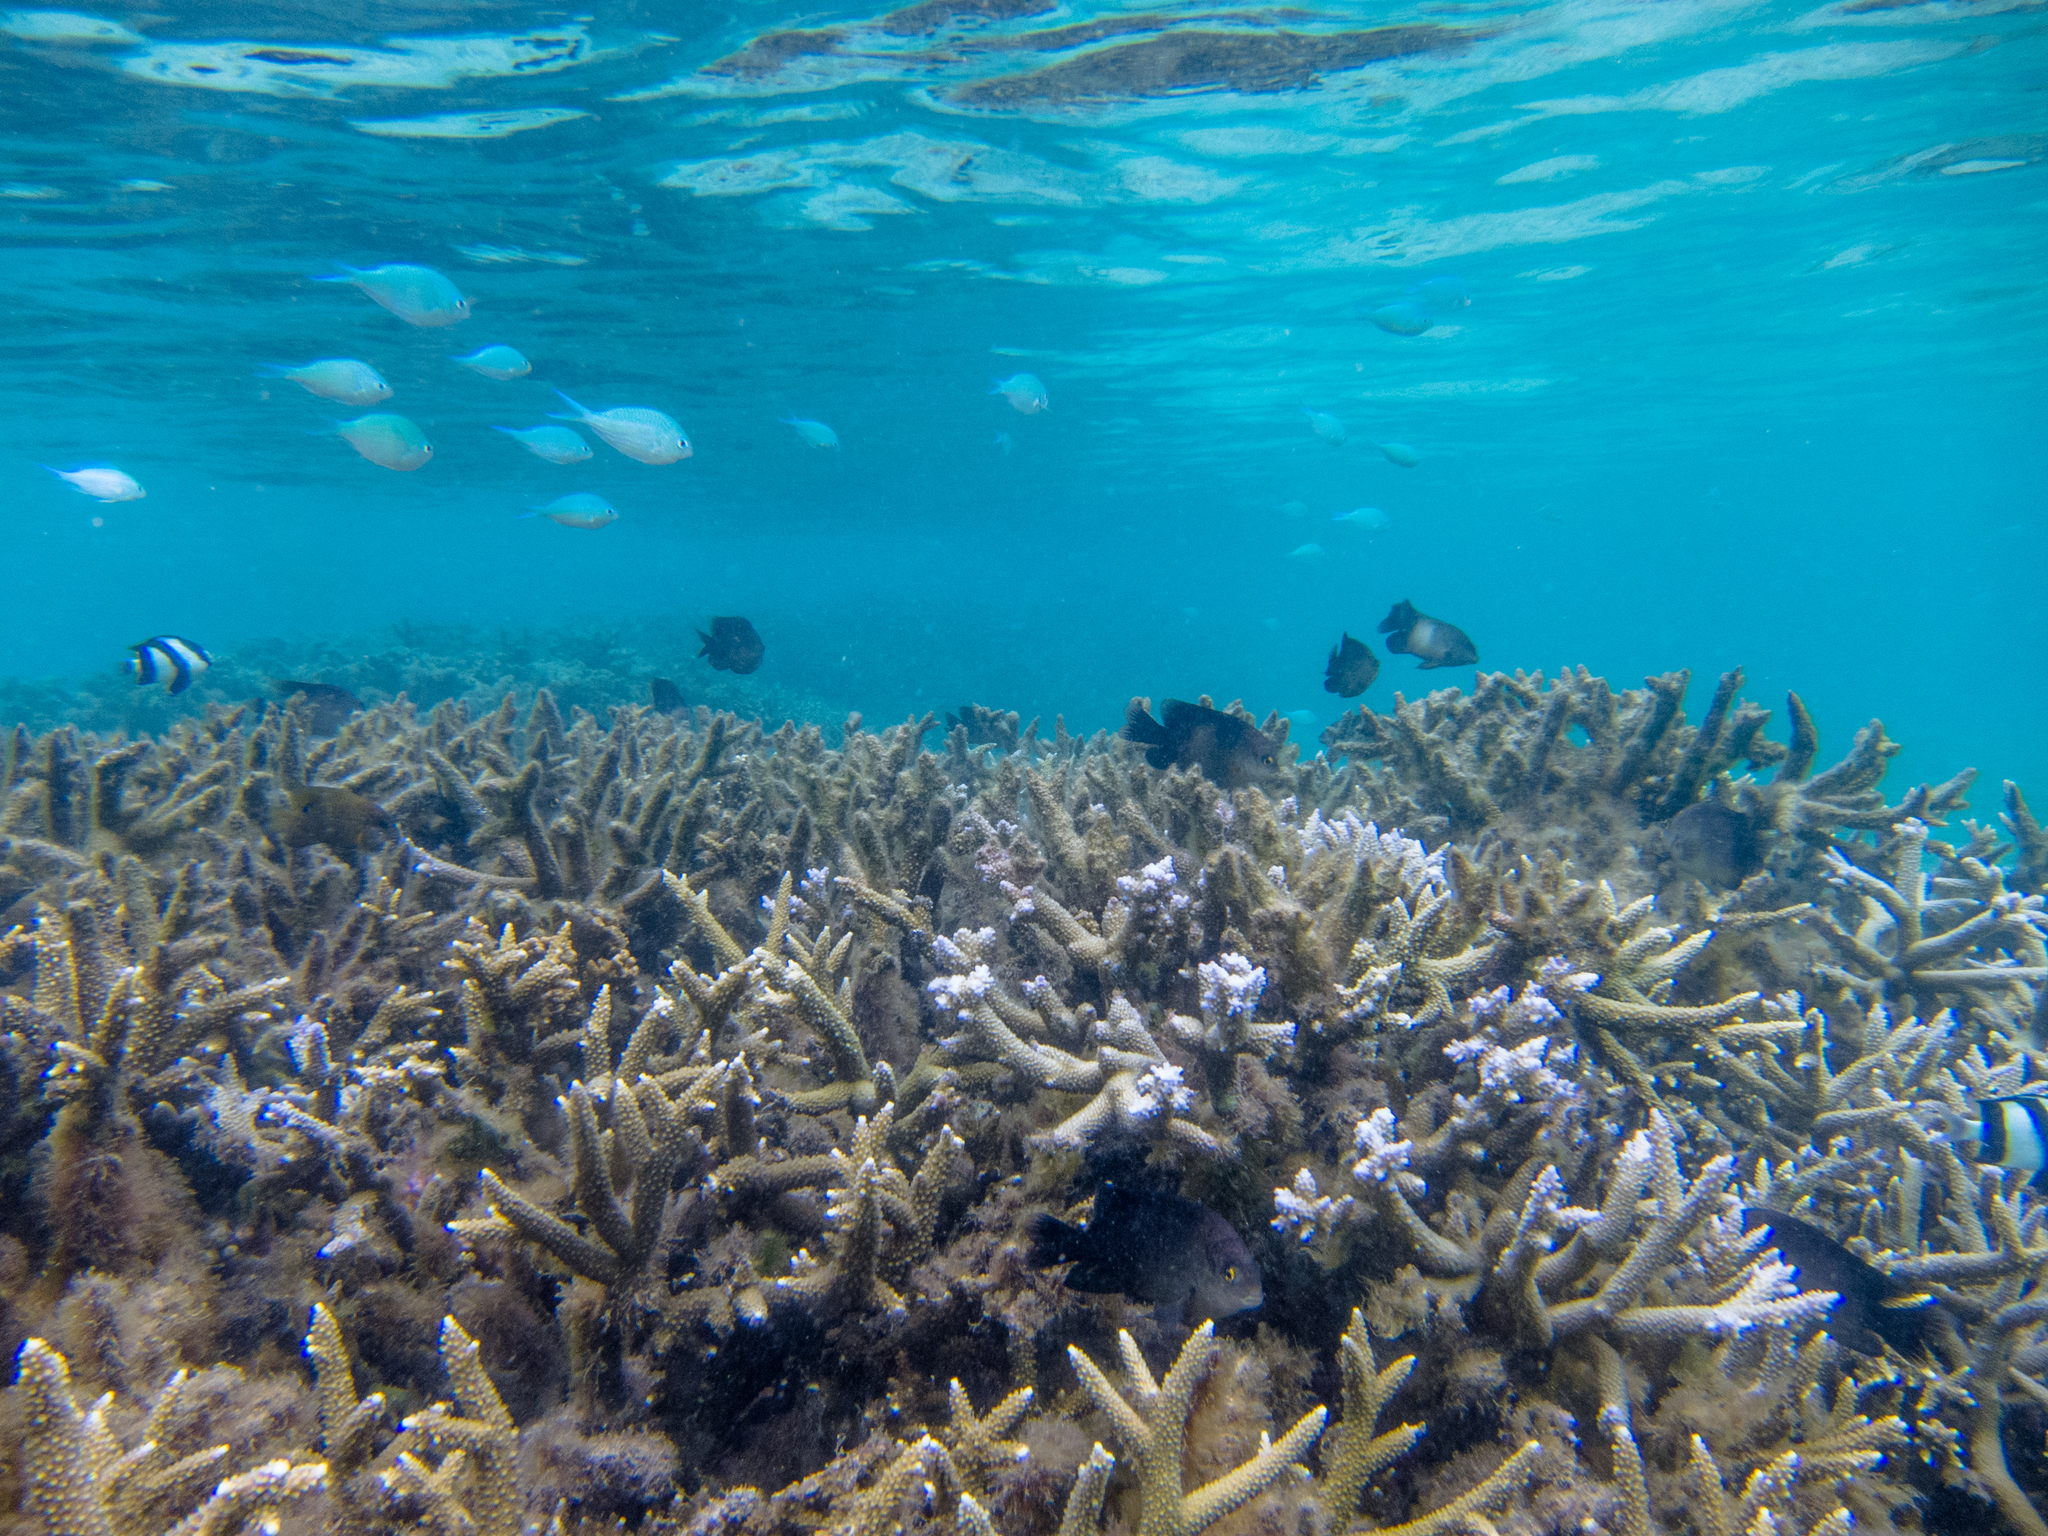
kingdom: Animalia
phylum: Chordata
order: Perciformes
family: Pomacentridae
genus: Chromis
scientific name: Chromis viridis
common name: Blue-green chromis
